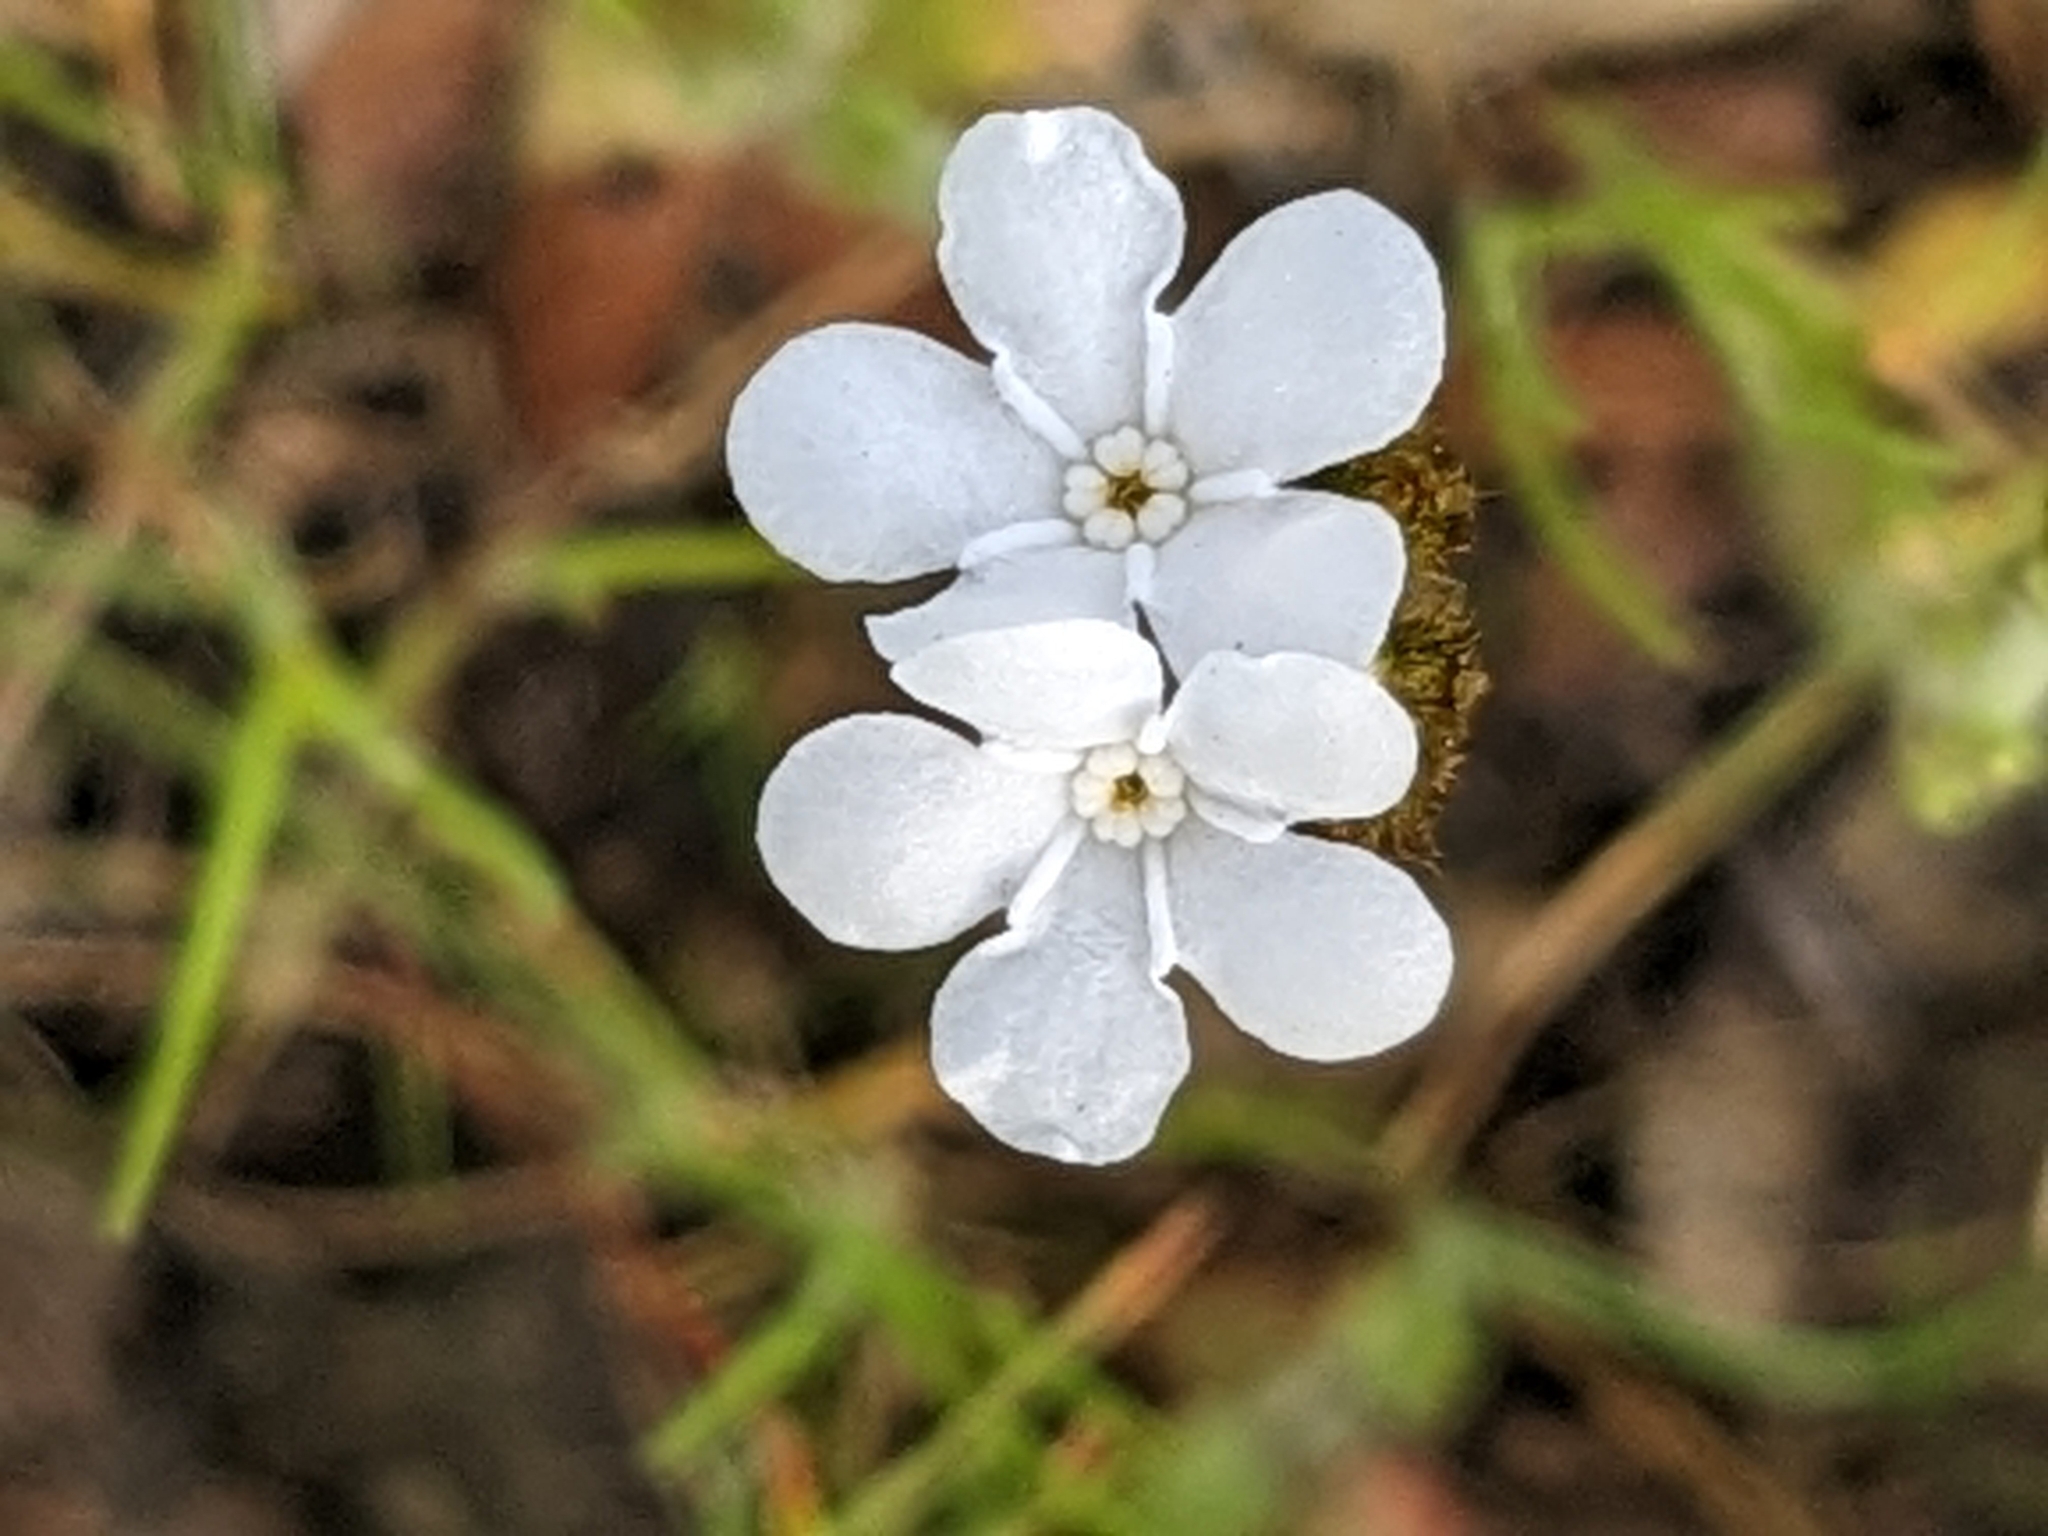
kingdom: Plantae
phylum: Tracheophyta
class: Magnoliopsida
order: Boraginales
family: Boraginaceae
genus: Plagiobothrys
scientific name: Plagiobothrys nothofulvus
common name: Popcorn-flower
